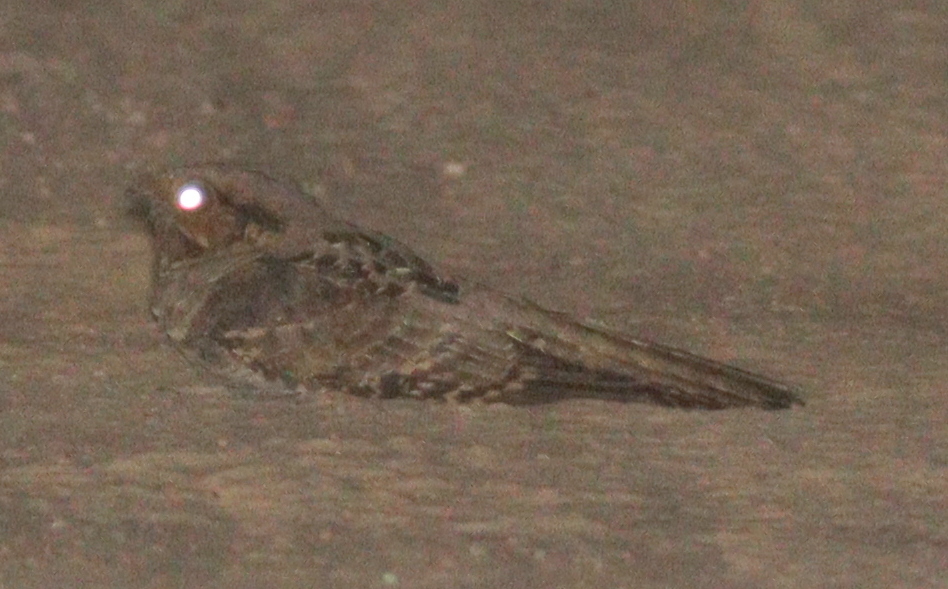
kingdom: Animalia
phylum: Chordata
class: Aves
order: Caprimulgiformes
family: Caprimulgidae
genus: Nyctidromus
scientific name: Nyctidromus albicollis
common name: Pauraque
